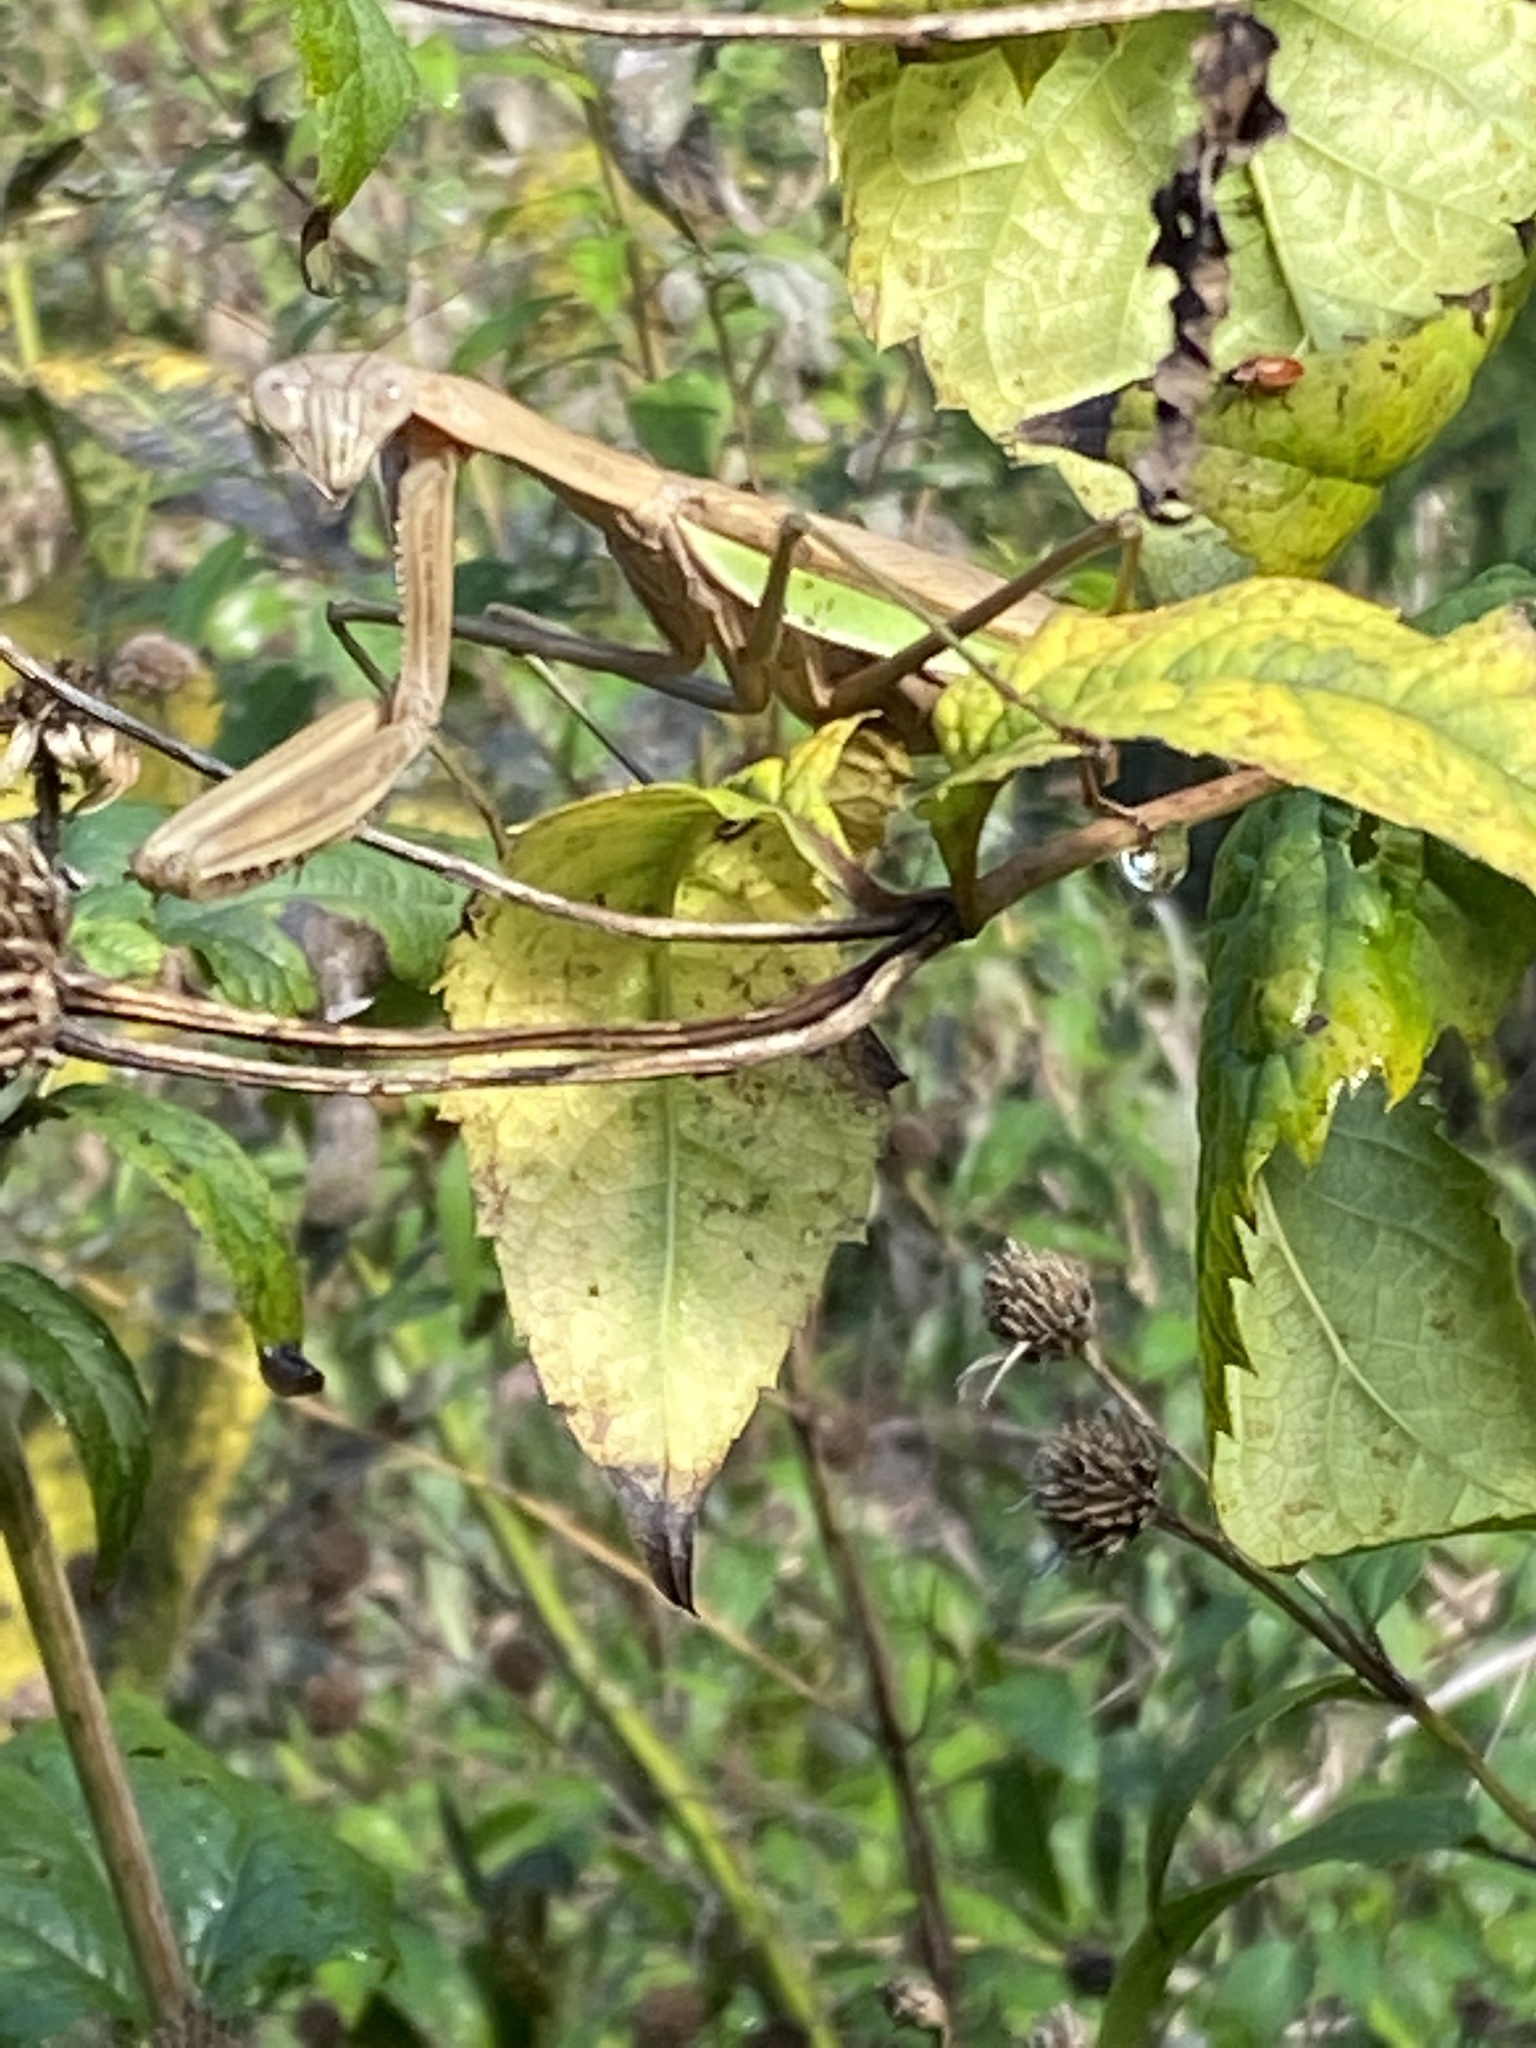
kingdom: Animalia
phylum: Arthropoda
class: Insecta
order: Mantodea
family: Mantidae
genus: Tenodera
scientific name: Tenodera sinensis
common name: Chinese mantis
